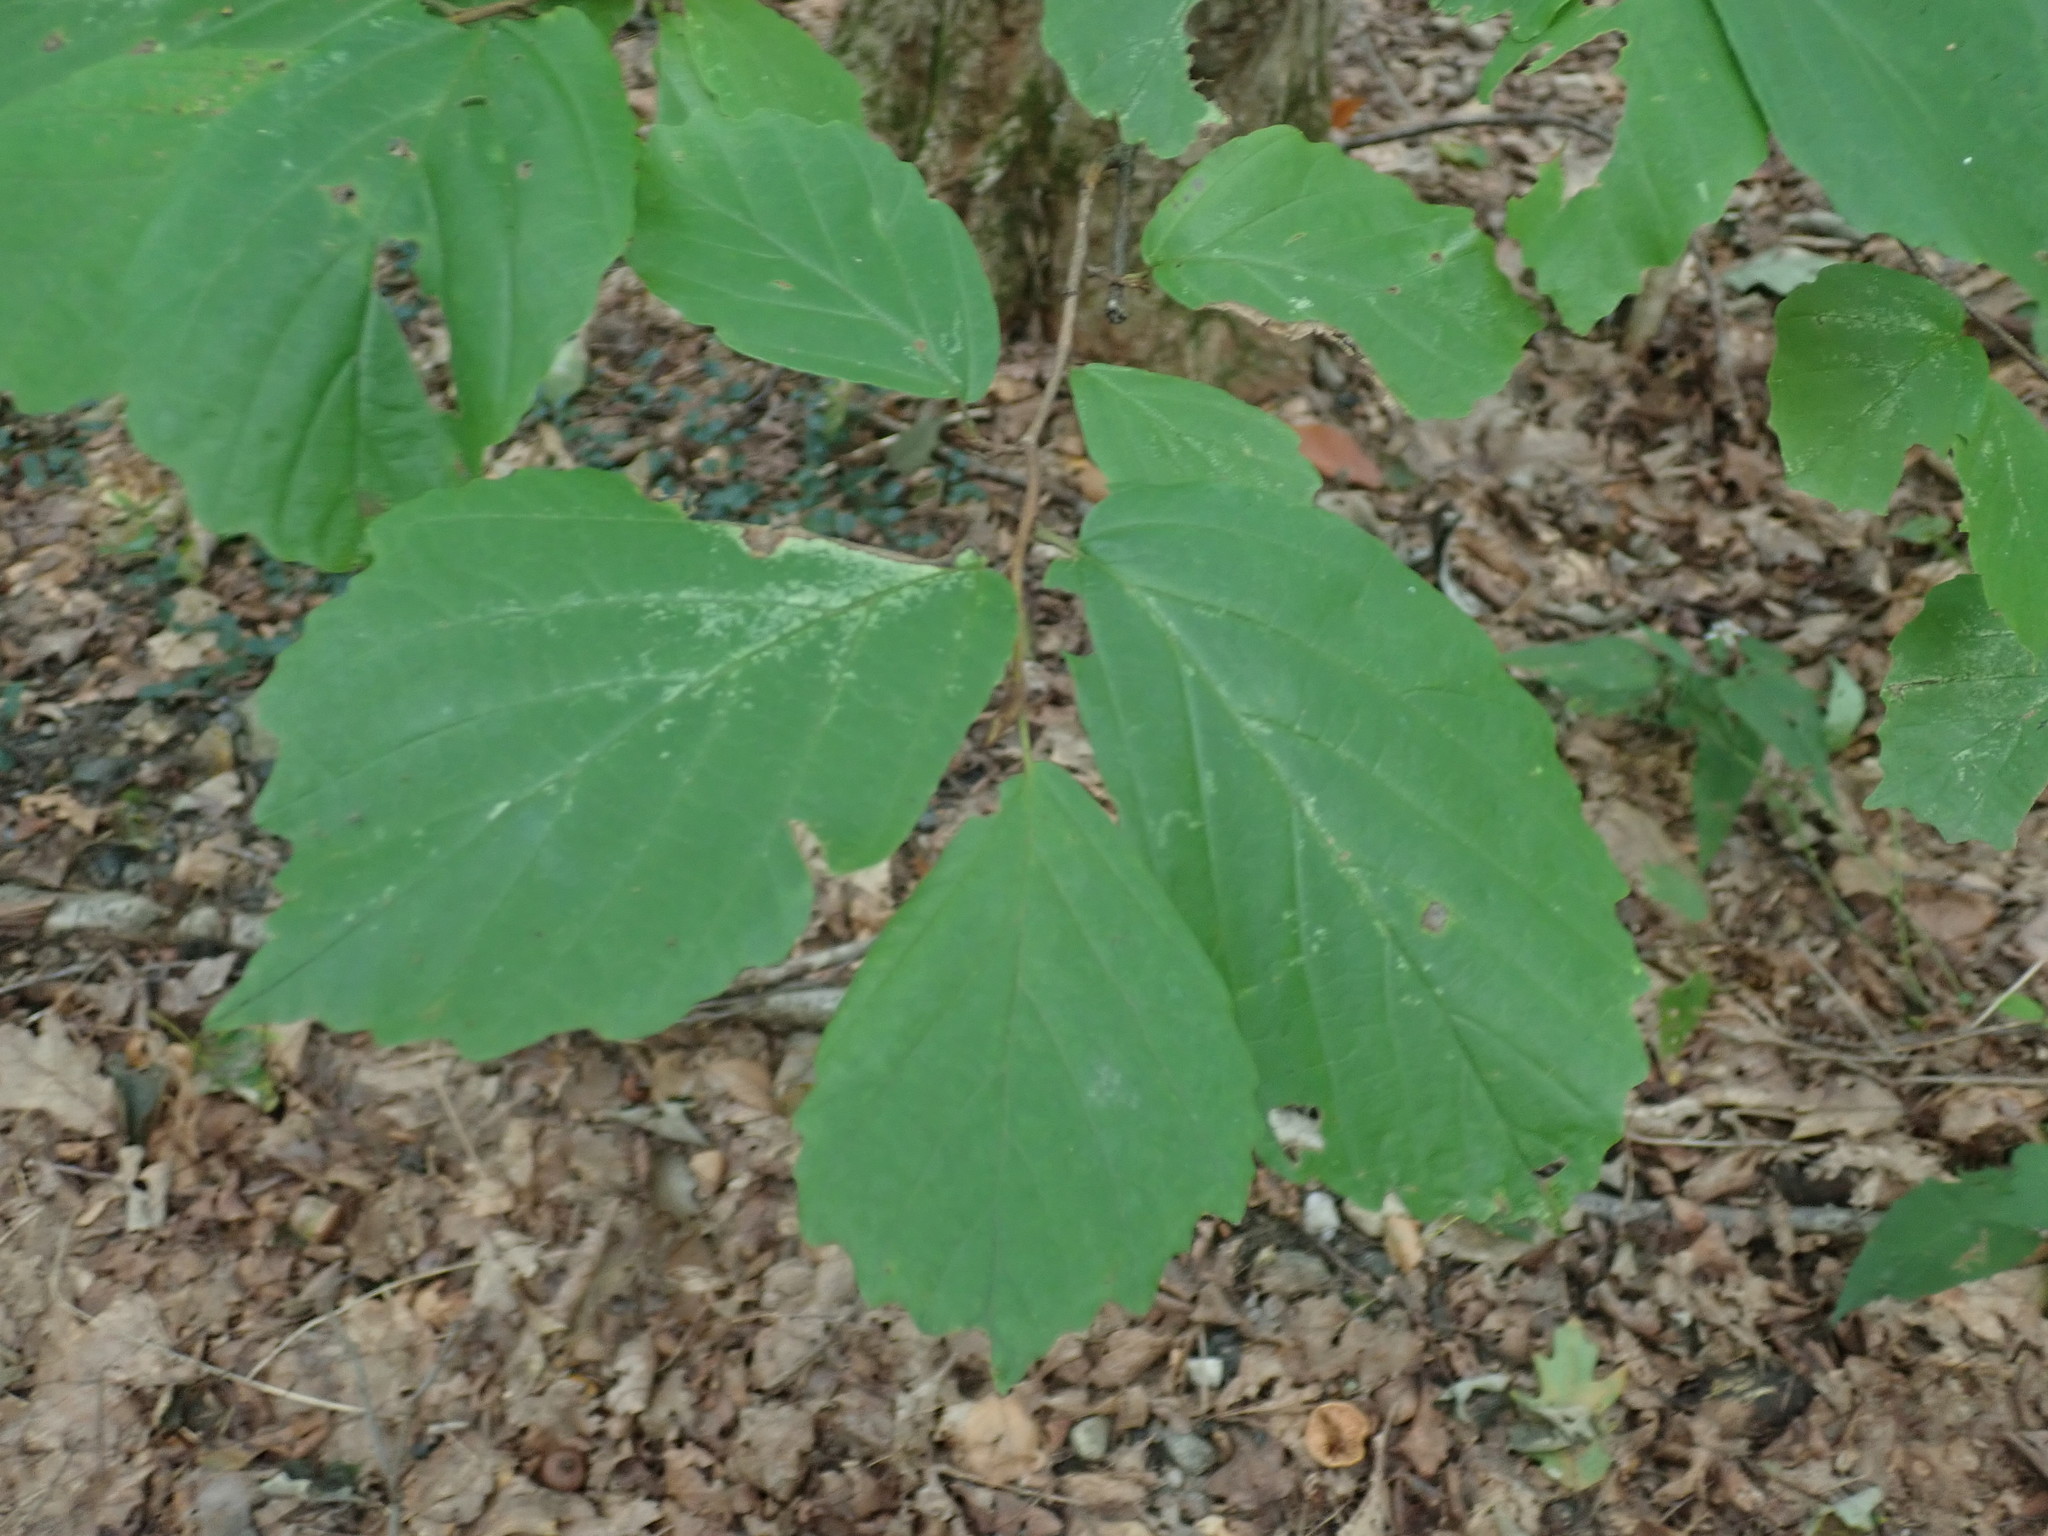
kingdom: Plantae
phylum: Tracheophyta
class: Magnoliopsida
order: Saxifragales
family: Hamamelidaceae
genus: Hamamelis
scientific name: Hamamelis virginiana
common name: Witch-hazel
